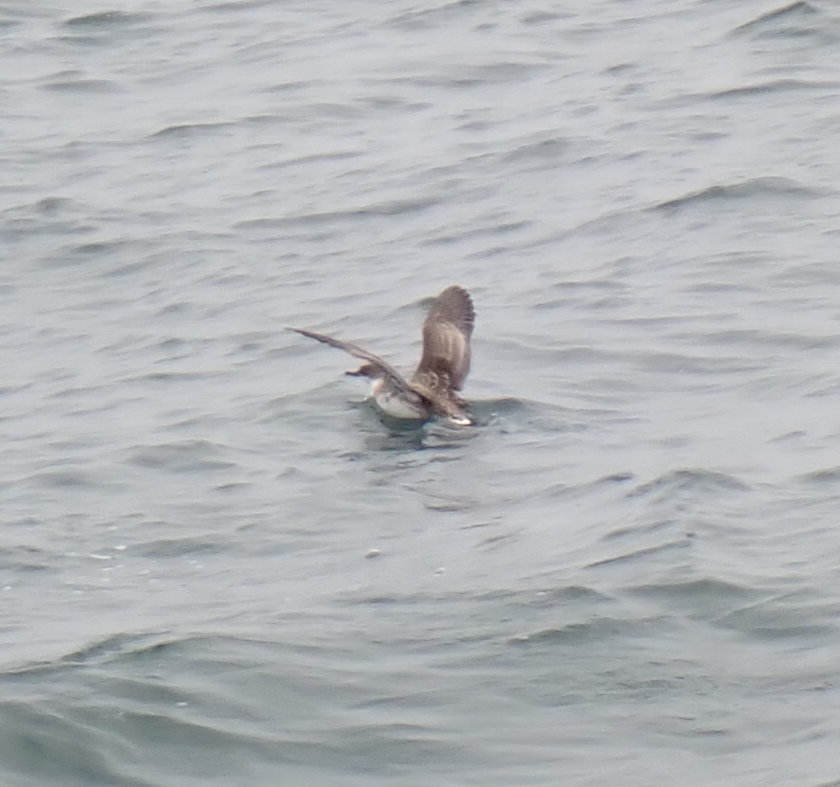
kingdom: Animalia
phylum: Chordata
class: Aves
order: Procellariiformes
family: Procellariidae
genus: Puffinus
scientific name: Puffinus gravis
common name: Great shearwater
